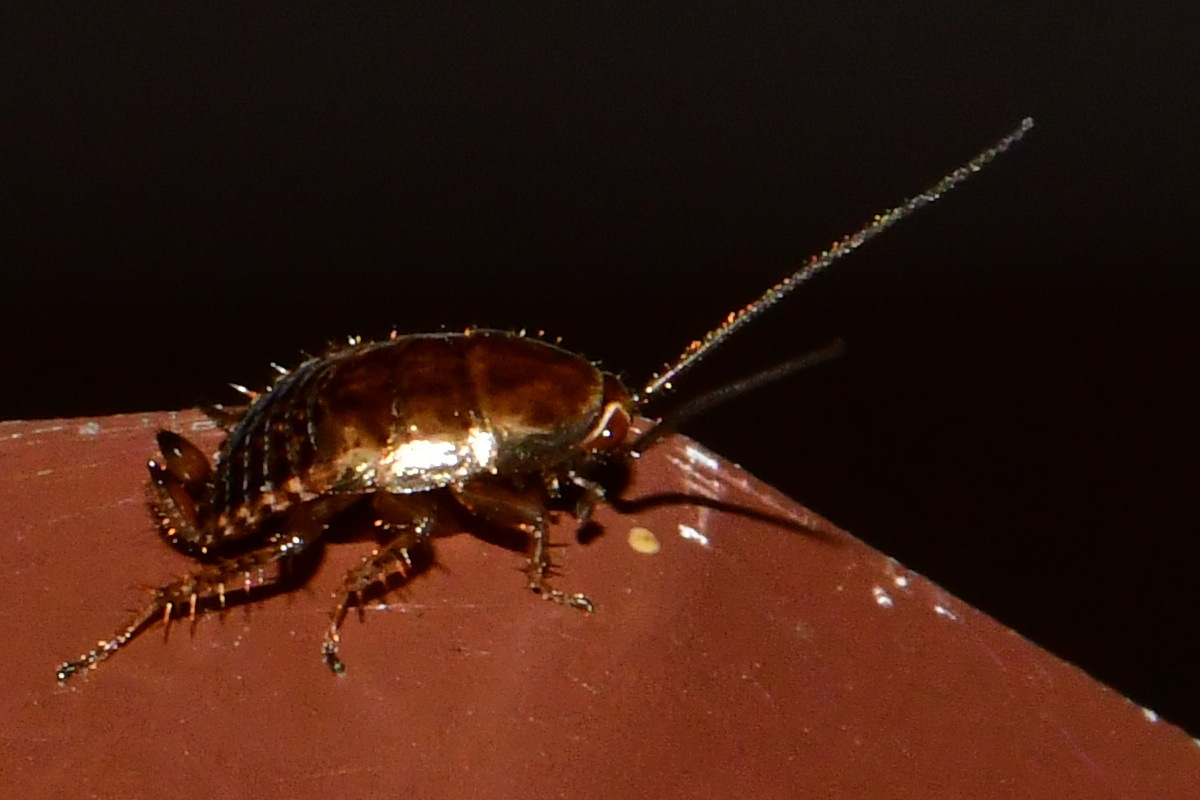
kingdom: Animalia
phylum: Arthropoda
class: Insecta
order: Blattodea
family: Ectobiidae
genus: Ectobius
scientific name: Ectobius lapponicus
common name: Dusky cockroach
